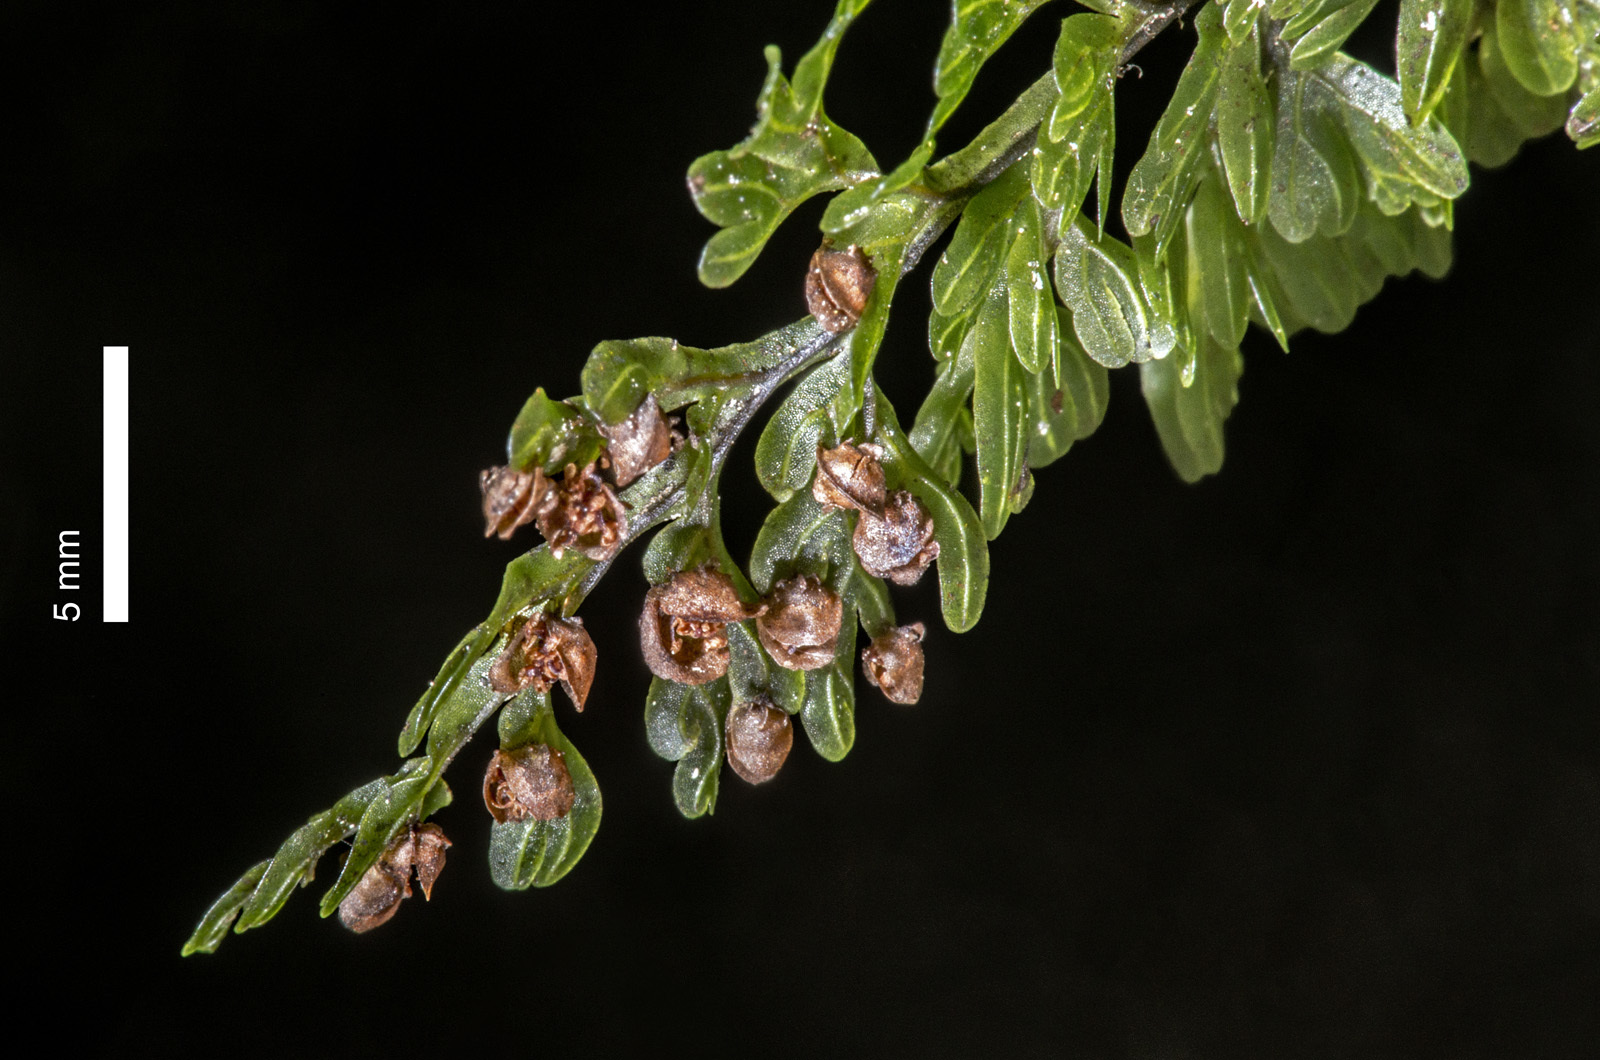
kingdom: Plantae
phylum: Tracheophyta
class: Polypodiopsida
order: Hymenophyllales
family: Hymenophyllaceae
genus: Hymenophyllum
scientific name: Hymenophyllum sanguinolentum
